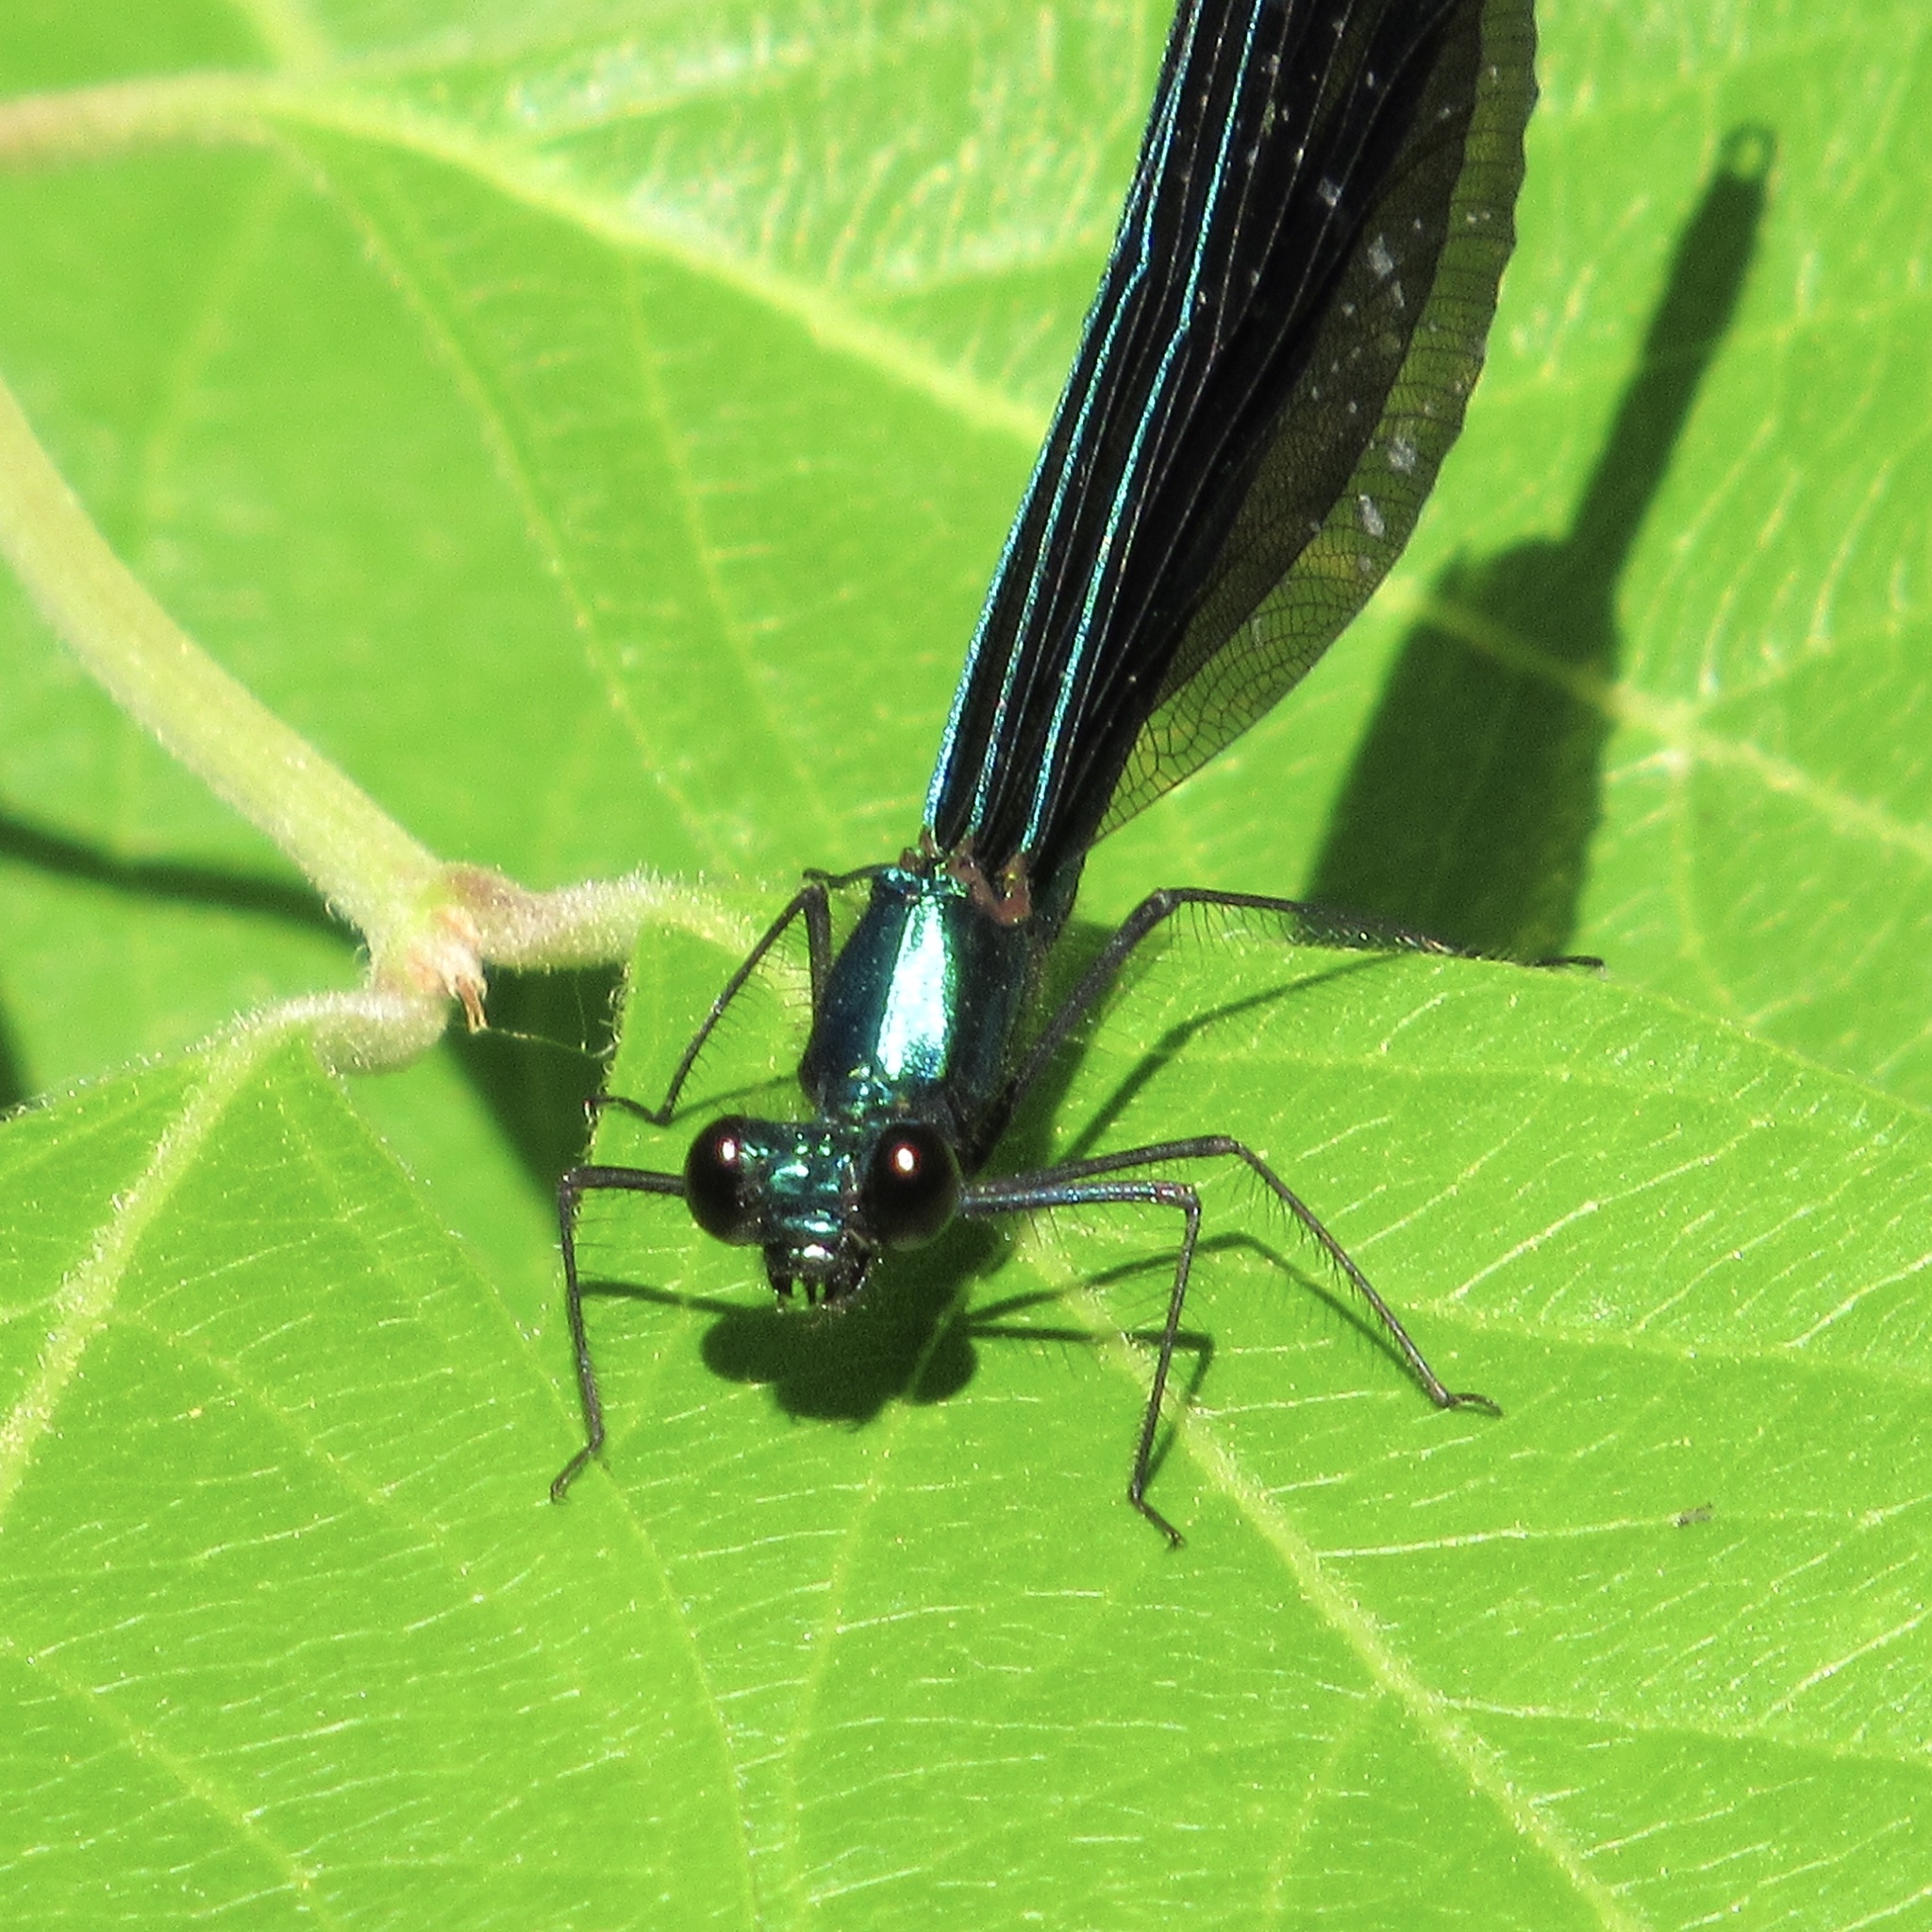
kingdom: Animalia
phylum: Arthropoda
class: Insecta
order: Odonata
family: Calopterygidae
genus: Calopteryx
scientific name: Calopteryx maculata
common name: Ebony jewelwing
